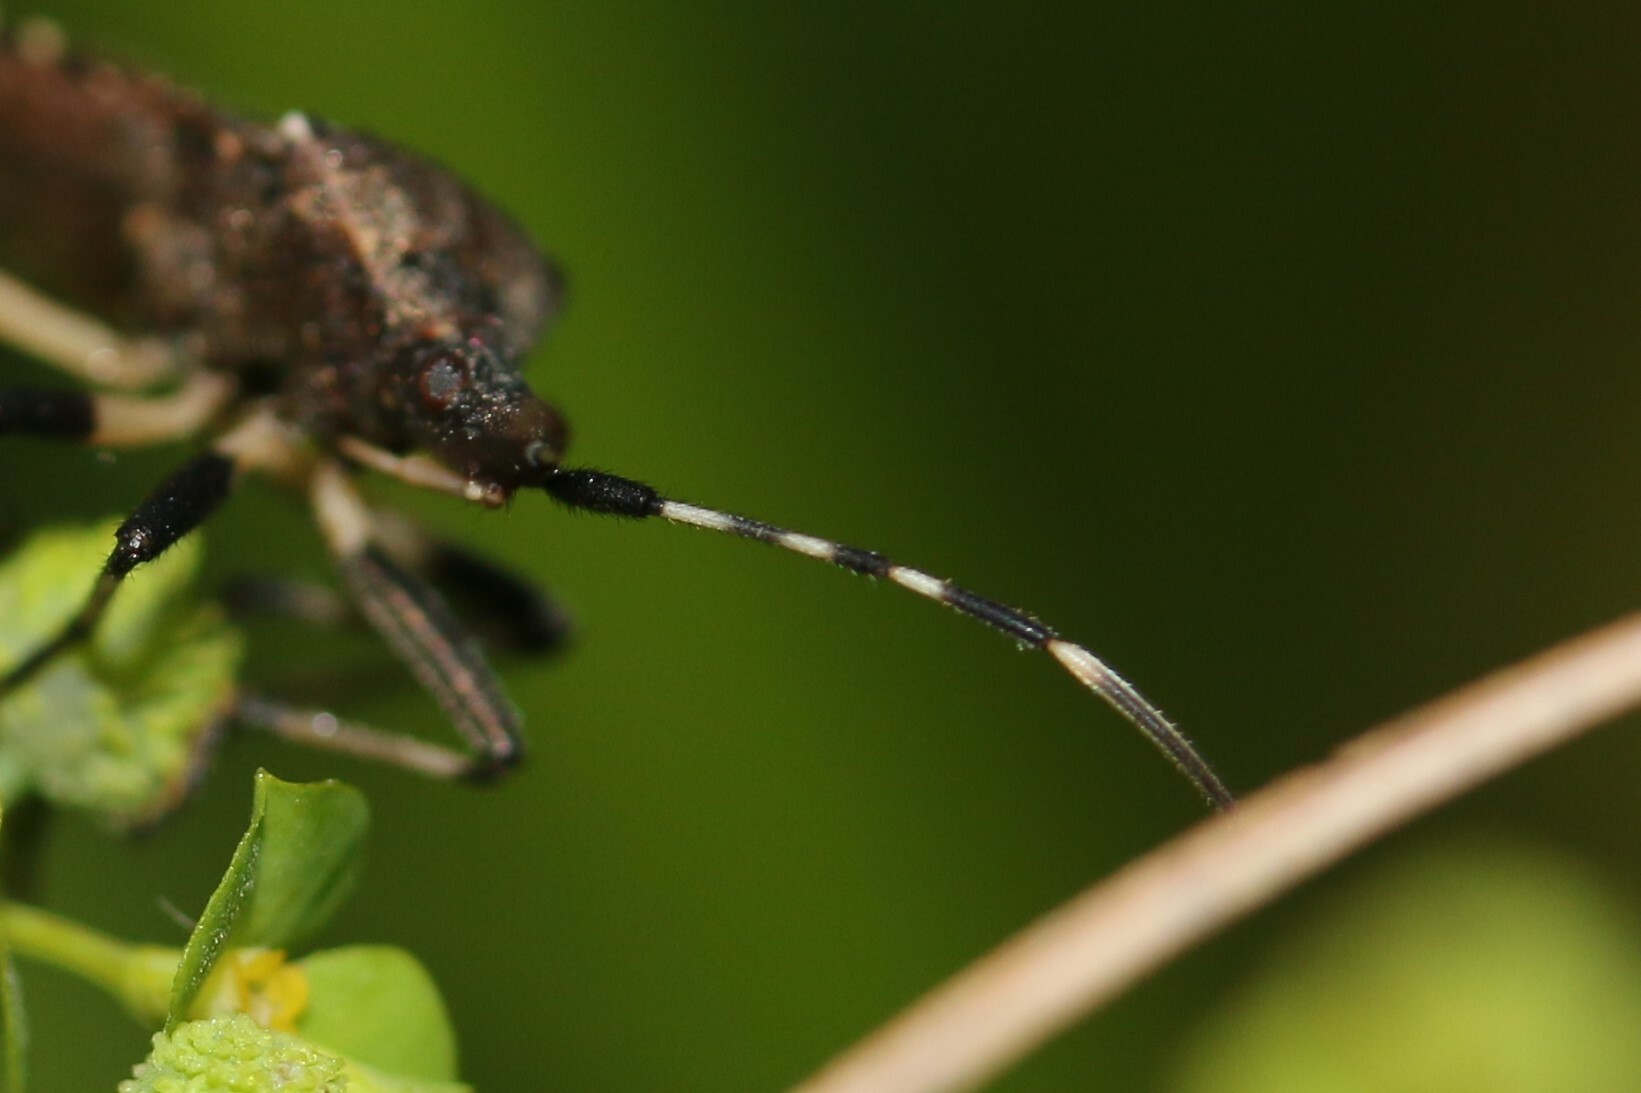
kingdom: Animalia
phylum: Arthropoda
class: Insecta
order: Hemiptera
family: Stenocephalidae
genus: Dicranocephalus
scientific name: Dicranocephalus albipes
